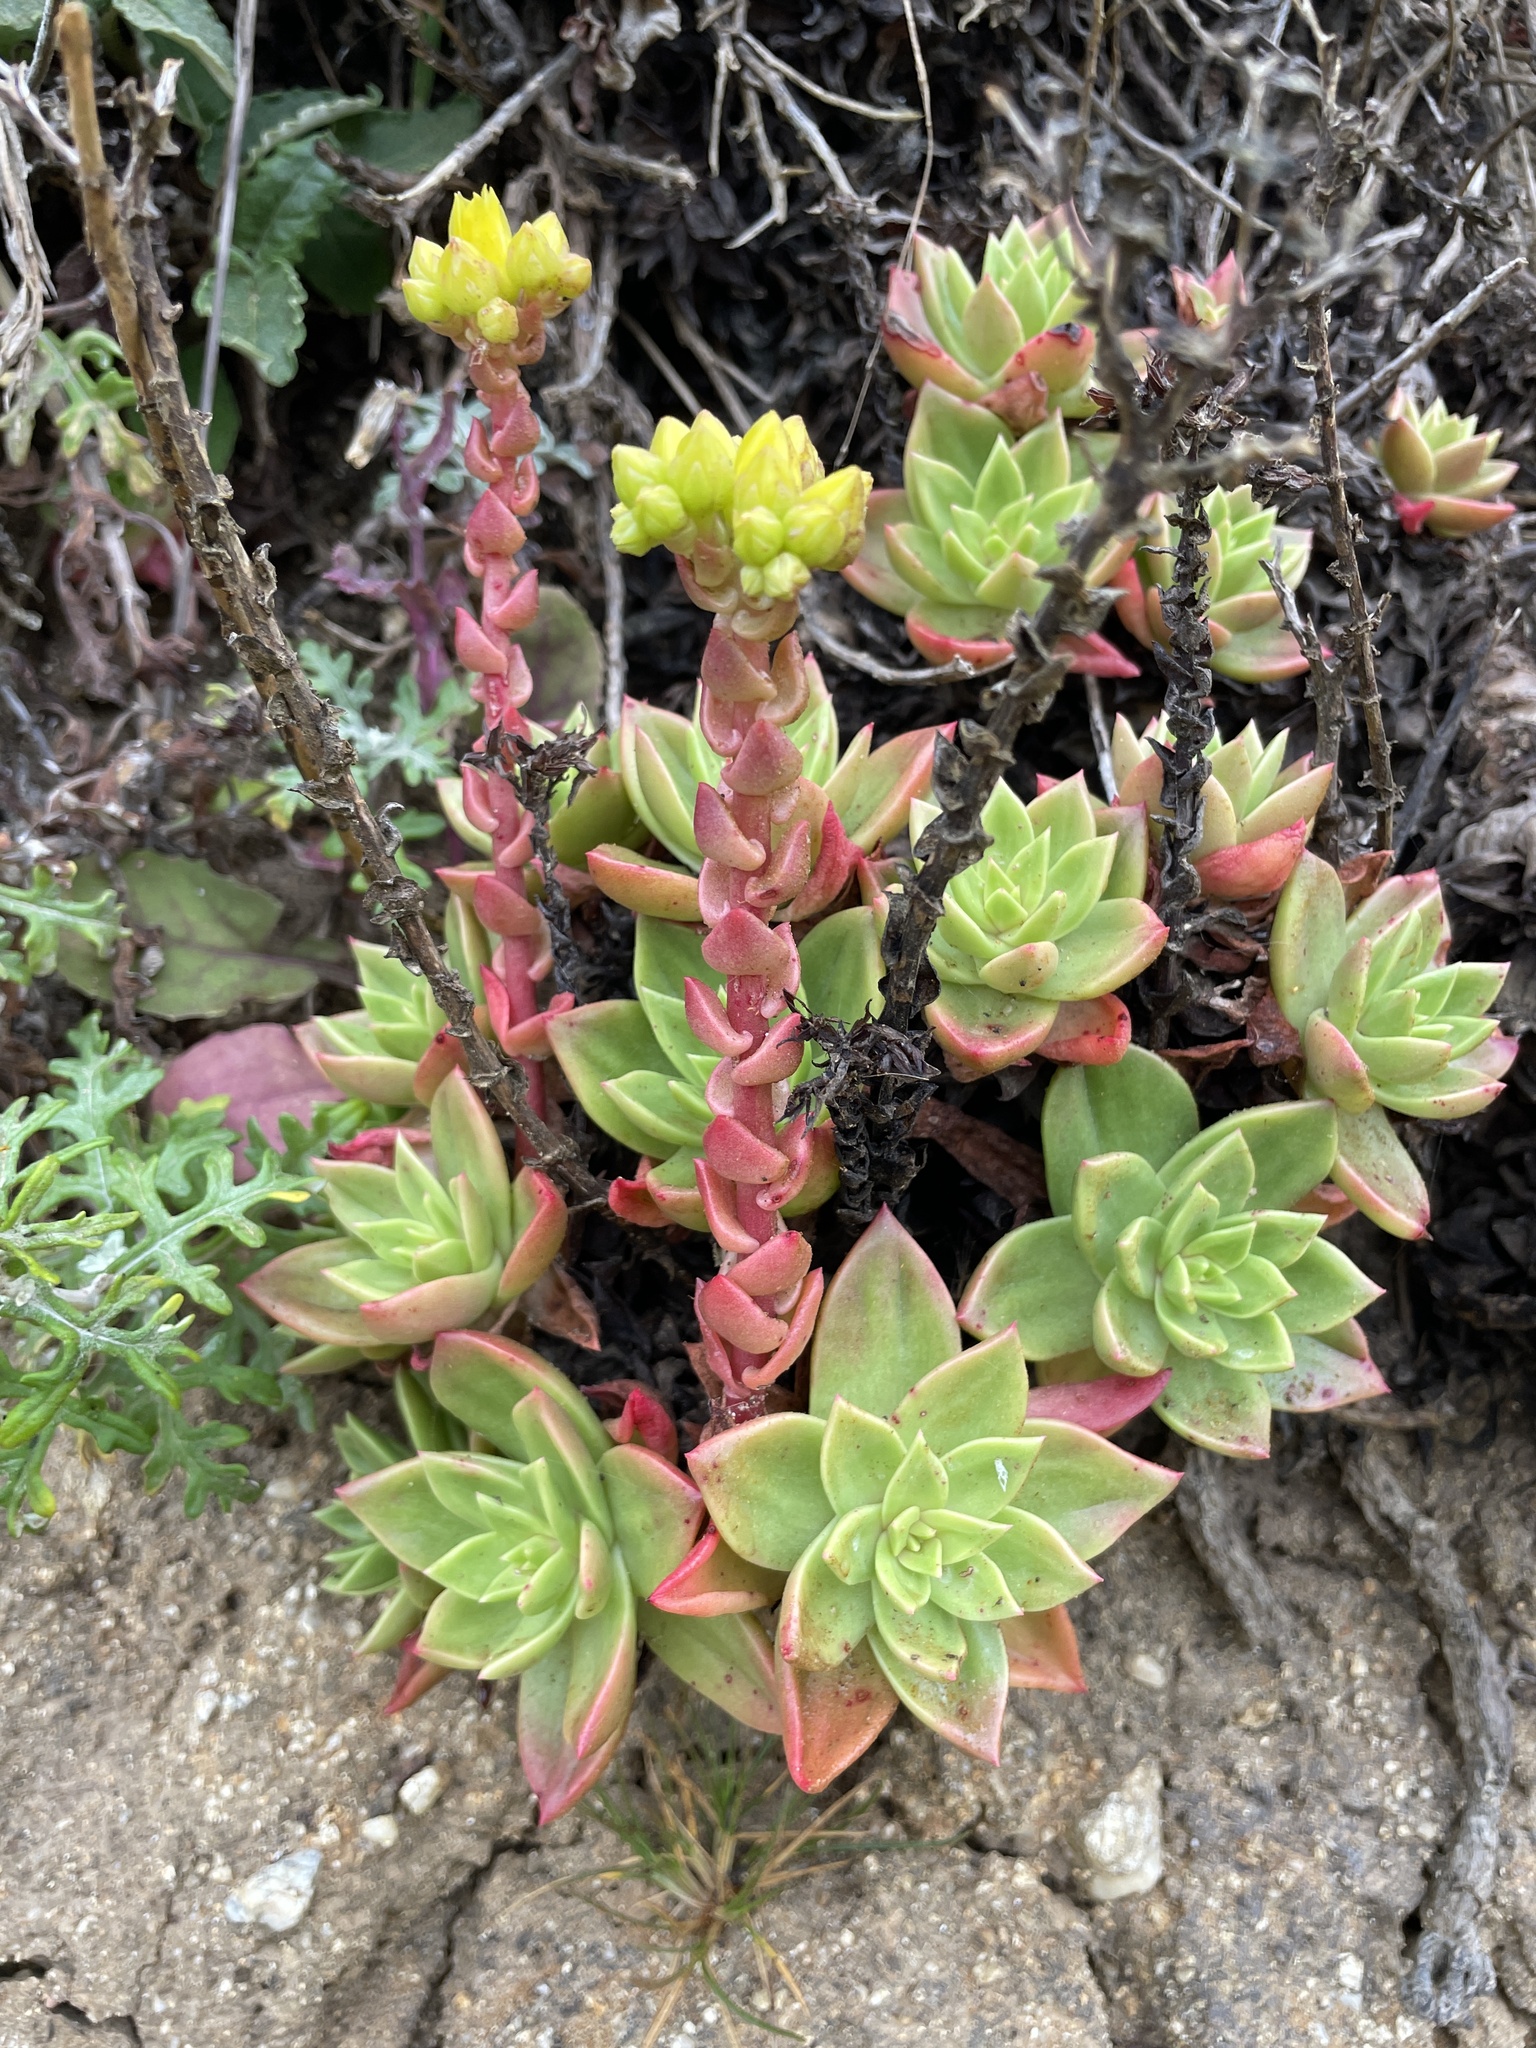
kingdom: Plantae
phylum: Tracheophyta
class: Magnoliopsida
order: Saxifragales
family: Crassulaceae
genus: Dudleya
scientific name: Dudleya farinosa
